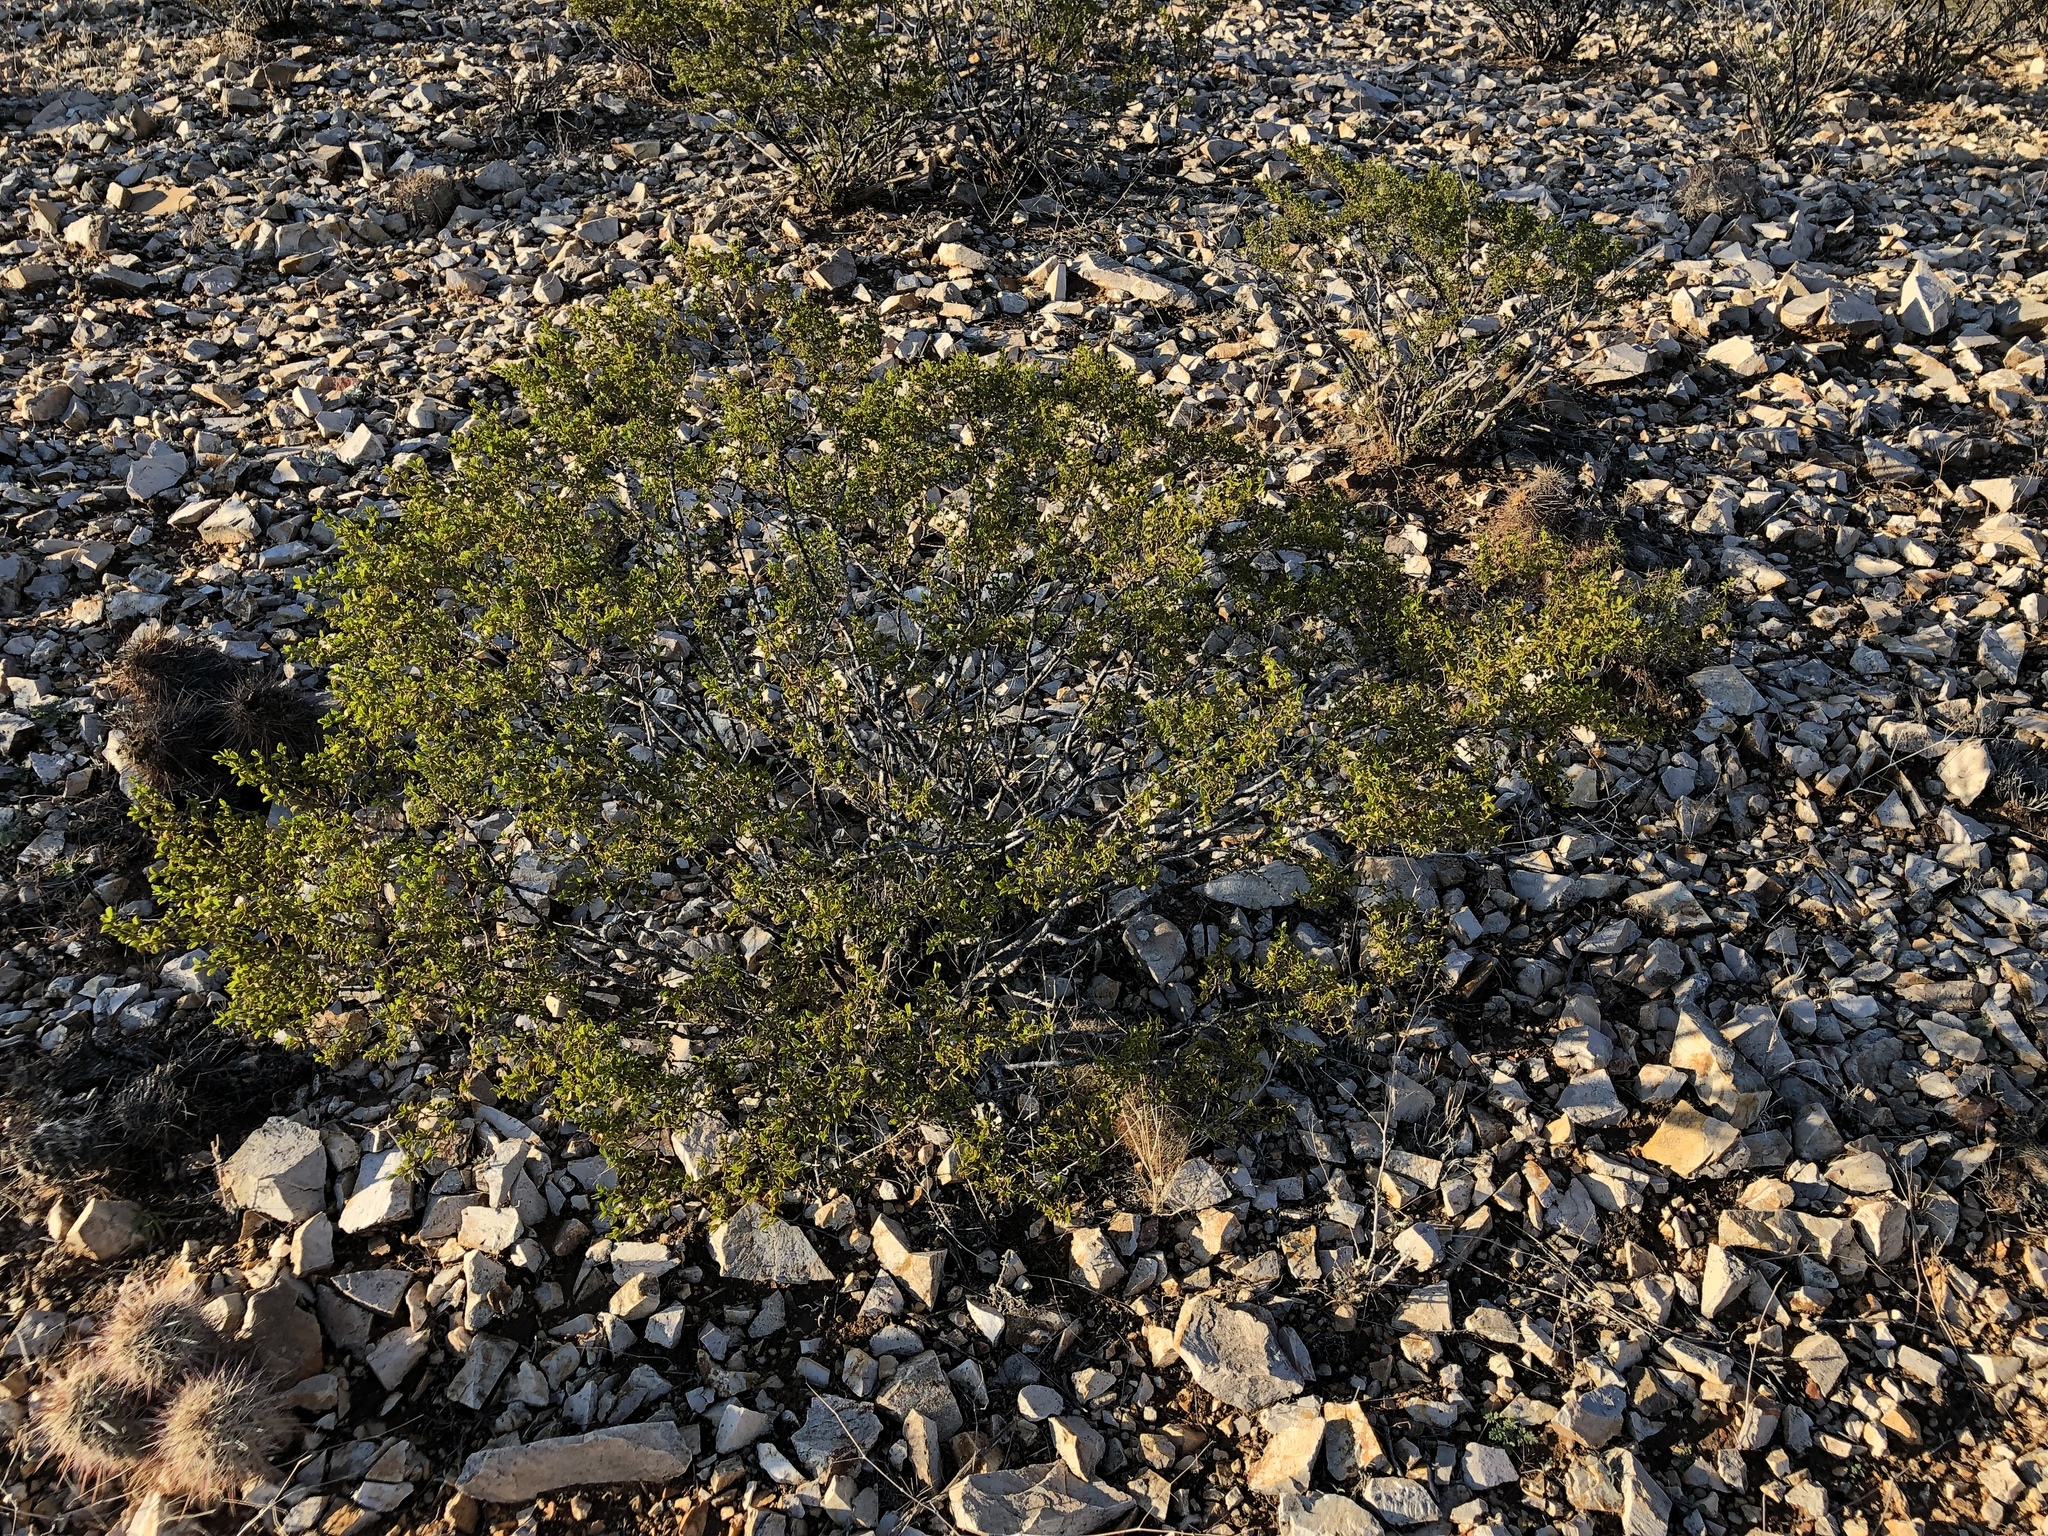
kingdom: Plantae
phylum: Tracheophyta
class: Magnoliopsida
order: Zygophyllales
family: Zygophyllaceae
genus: Larrea
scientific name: Larrea tridentata
